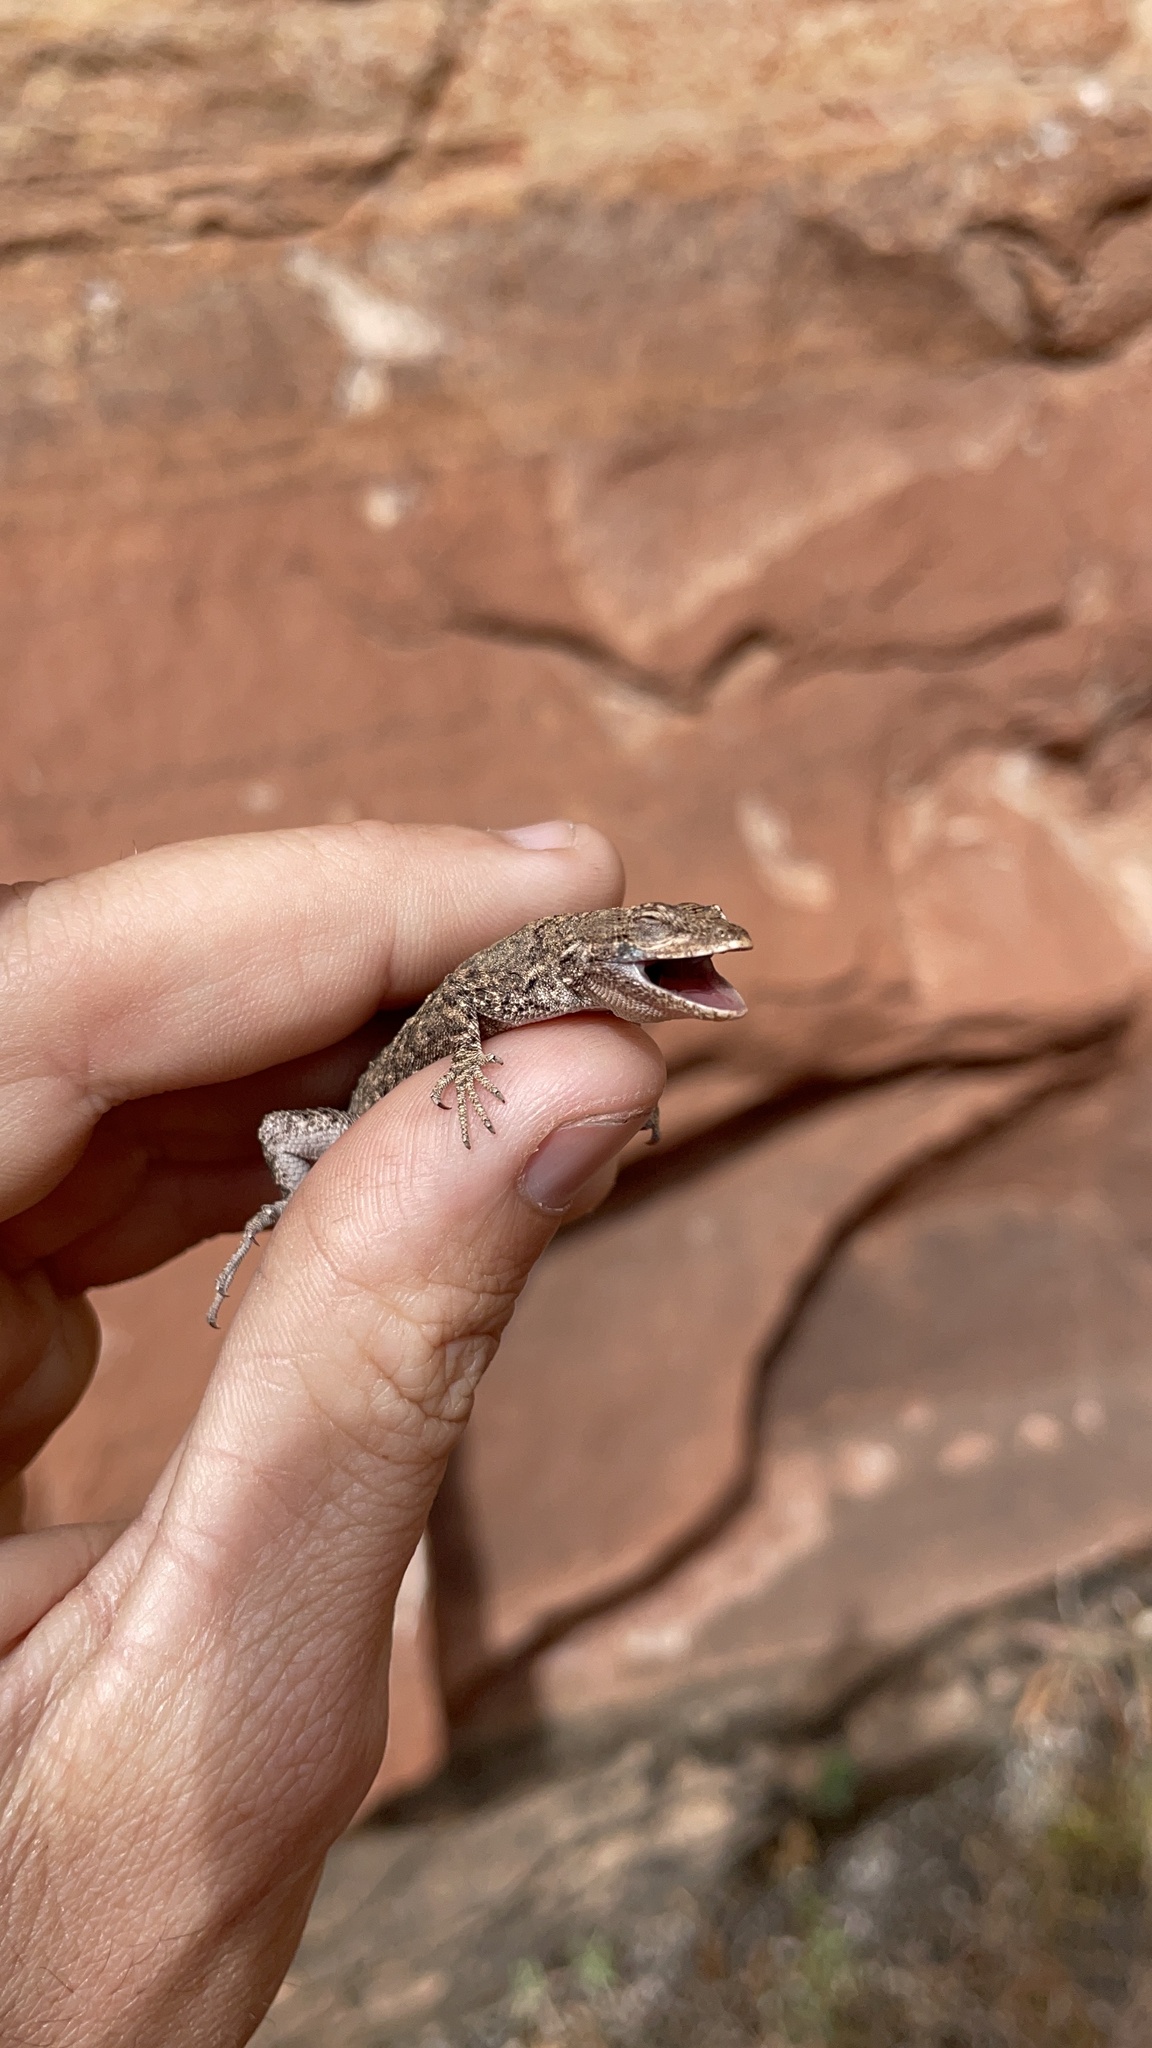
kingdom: Animalia
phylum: Chordata
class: Squamata
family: Phrynosomatidae
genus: Urosaurus
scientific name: Urosaurus ornatus
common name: Ornate tree lizard
